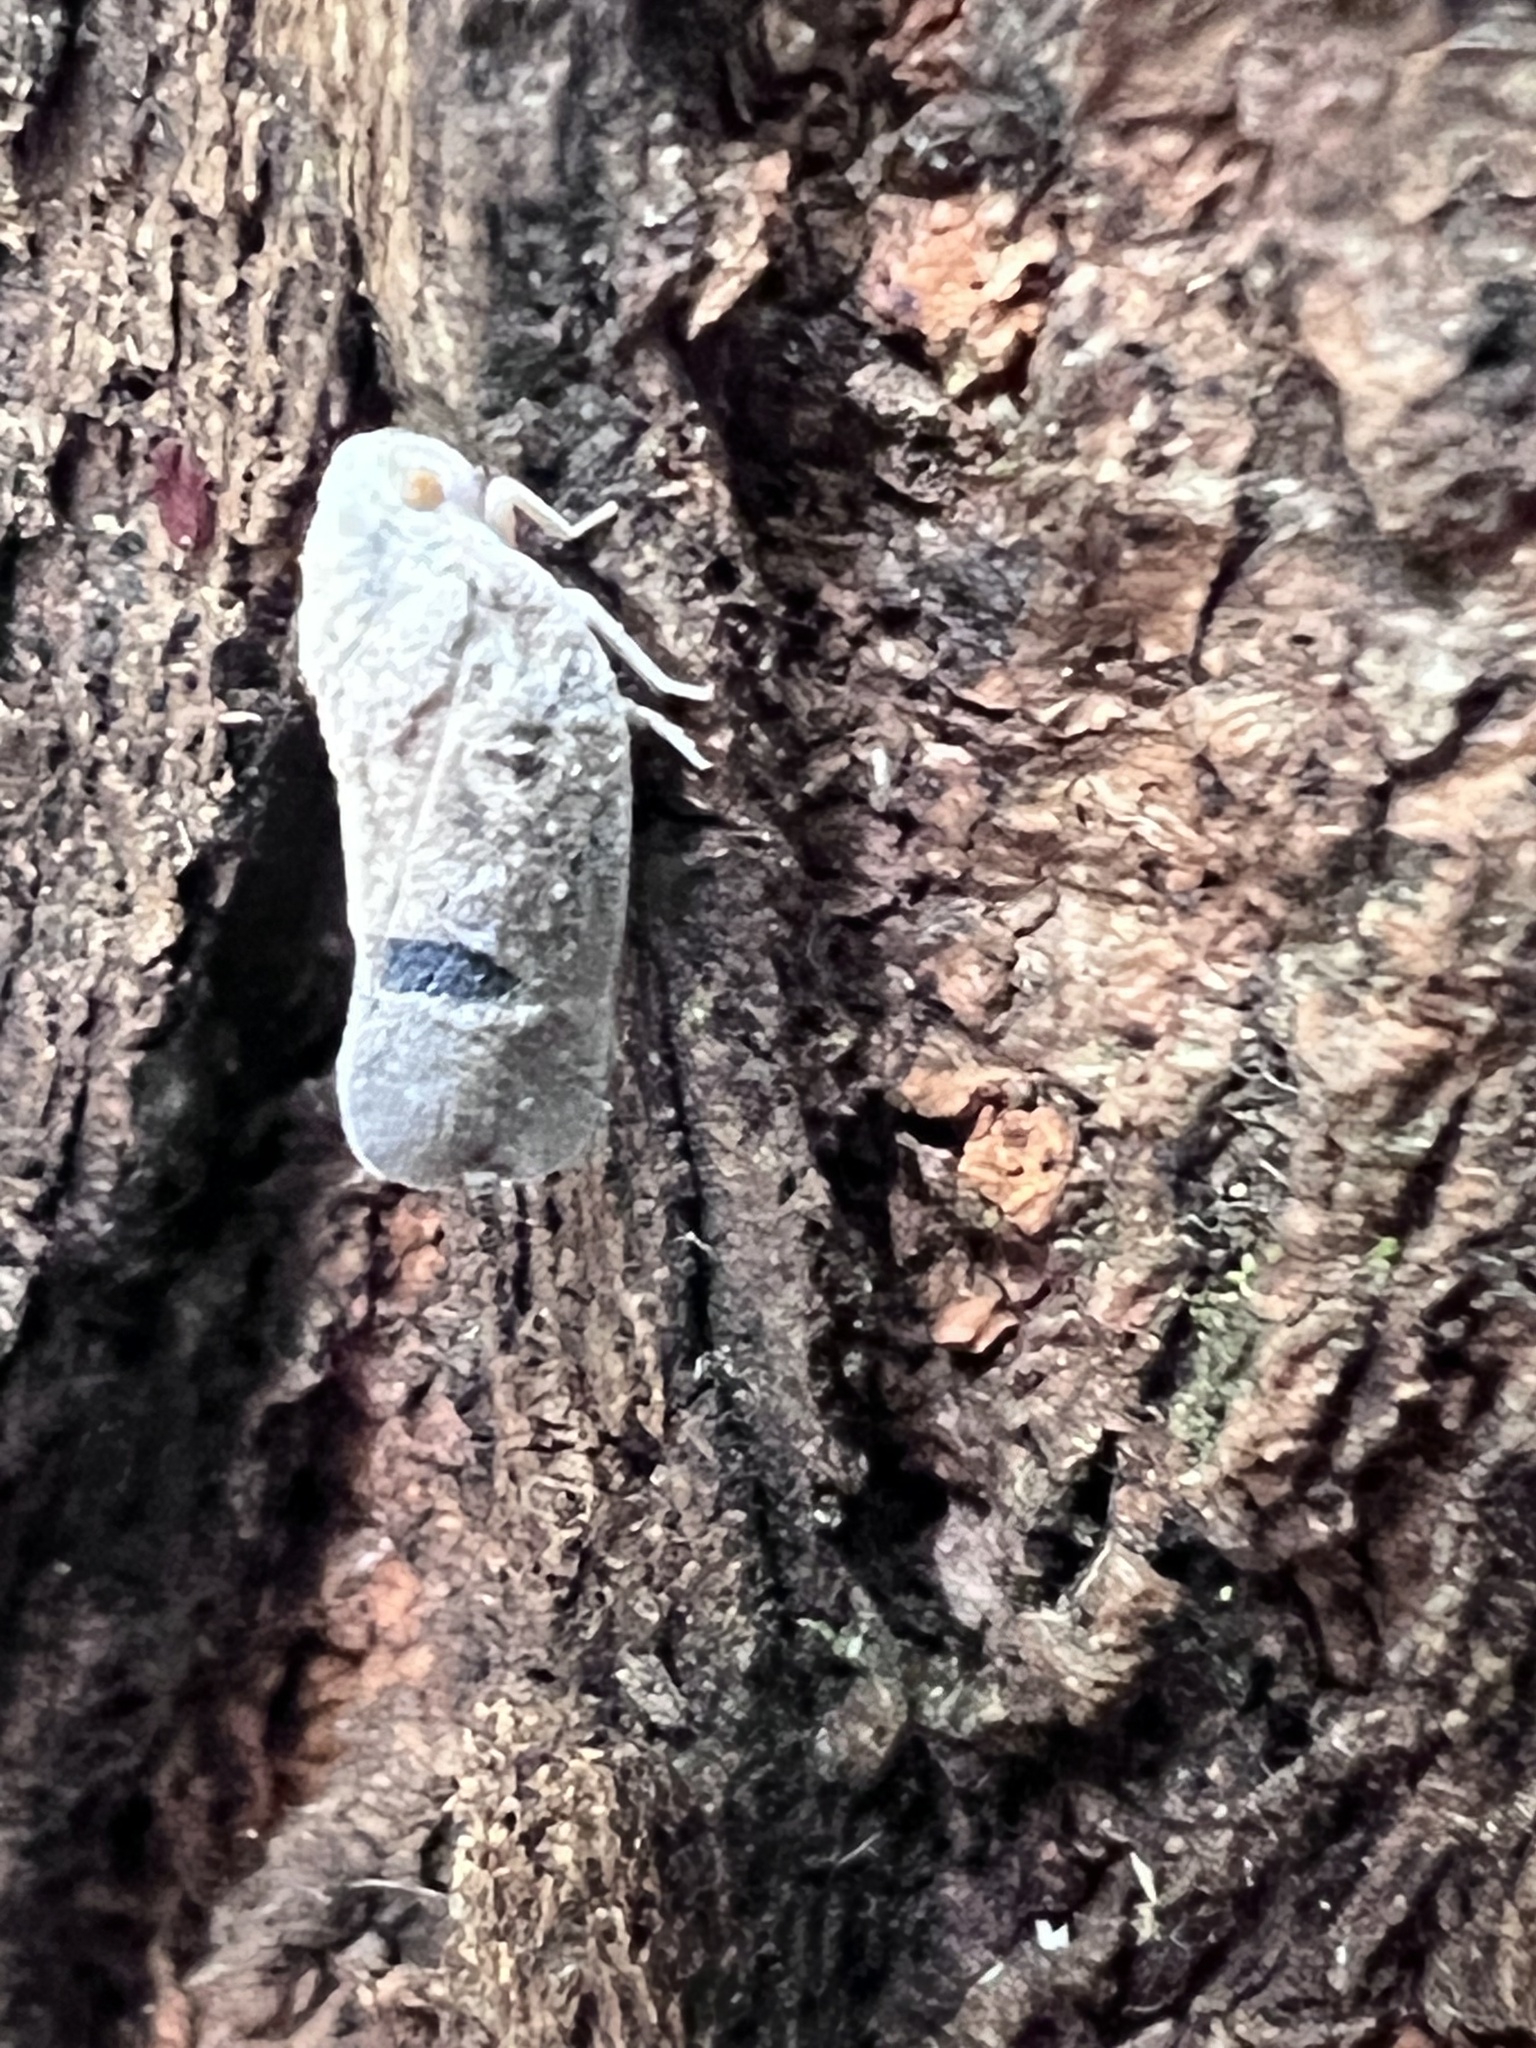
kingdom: Animalia
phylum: Arthropoda
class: Insecta
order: Hemiptera
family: Flatidae
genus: Metcalfa
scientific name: Metcalfa pruinosa
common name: Citrus flatid planthopper
